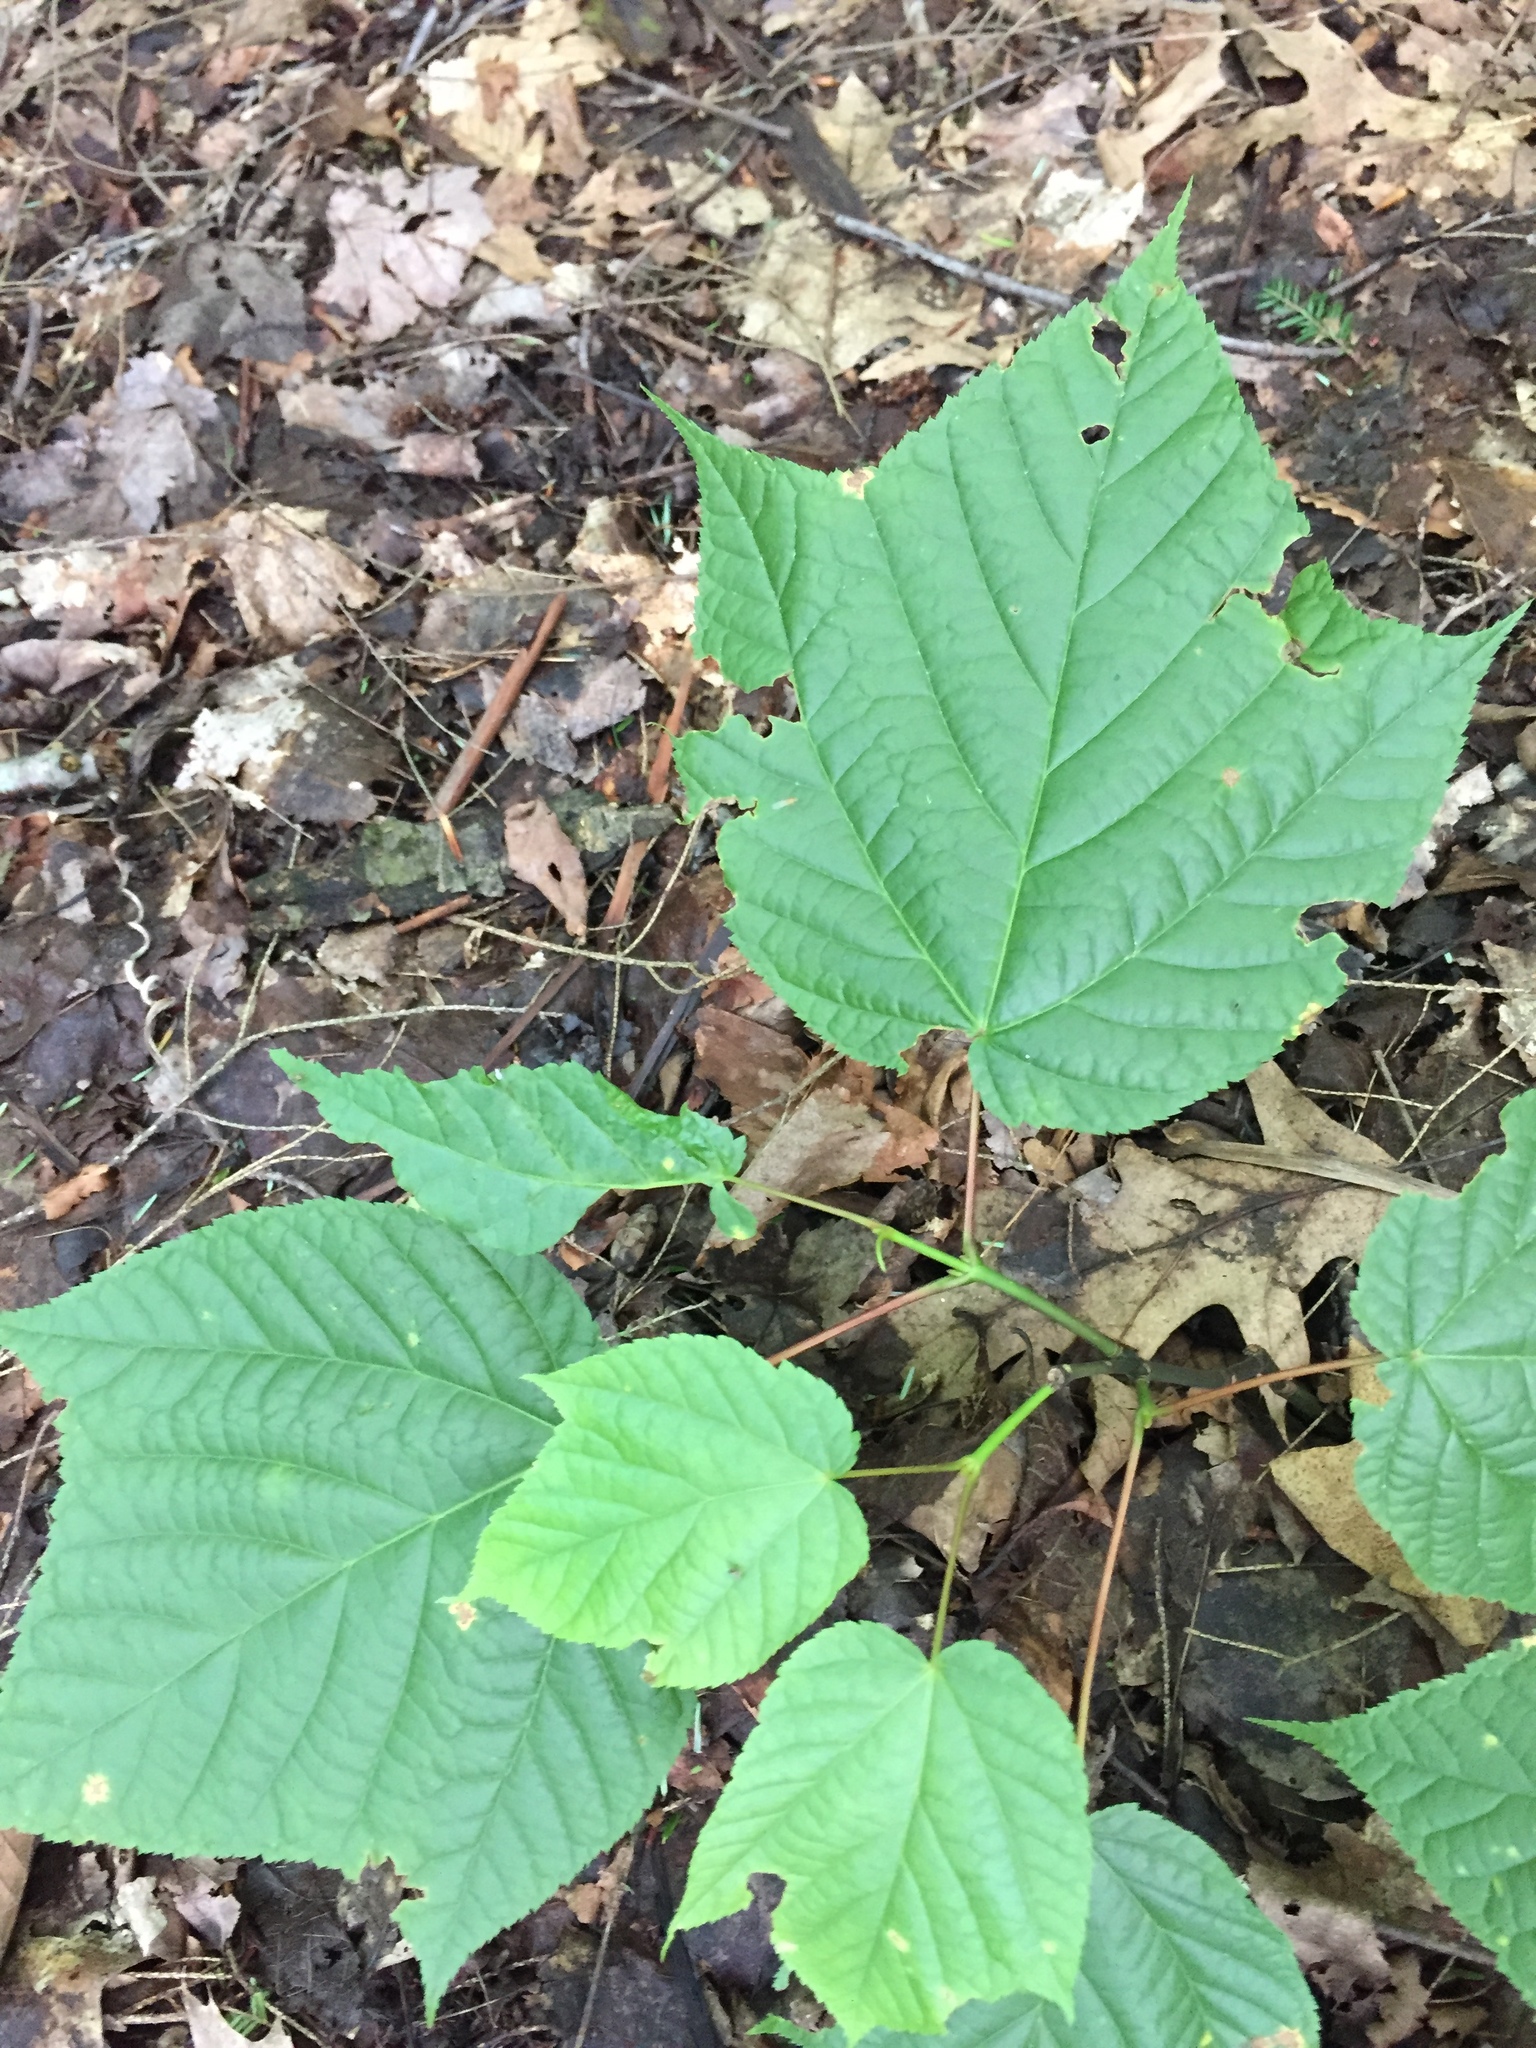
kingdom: Plantae
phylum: Tracheophyta
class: Magnoliopsida
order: Sapindales
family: Sapindaceae
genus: Acer
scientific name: Acer pensylvanicum
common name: Moosewood
